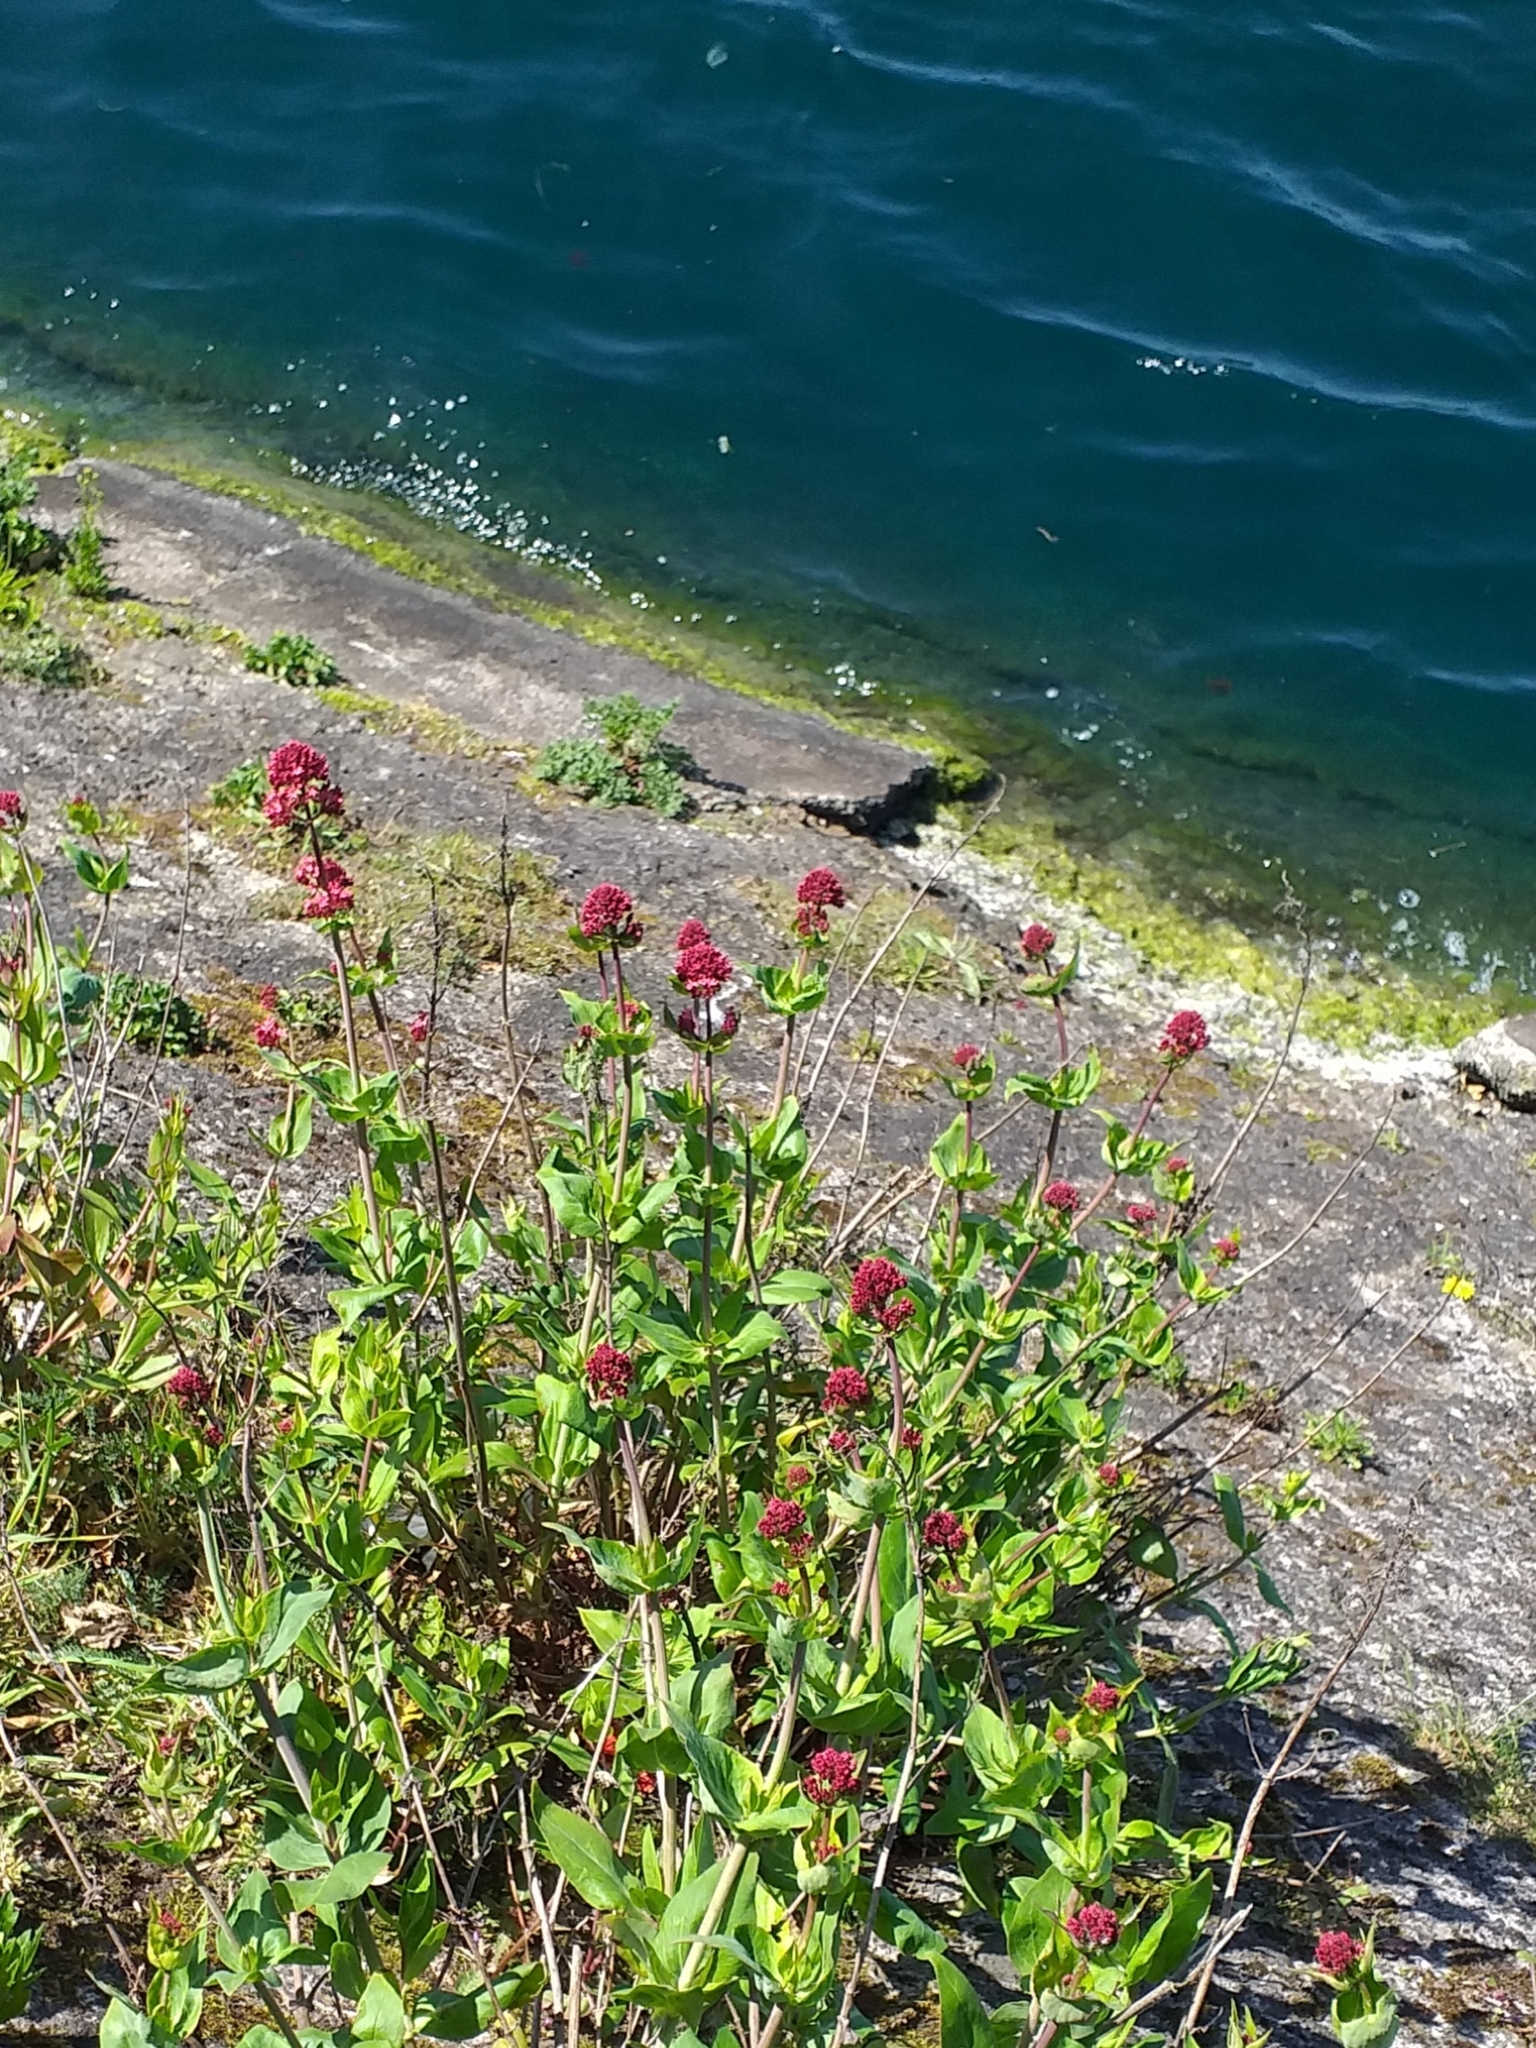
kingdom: Plantae
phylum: Tracheophyta
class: Magnoliopsida
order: Dipsacales
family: Caprifoliaceae
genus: Centranthus
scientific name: Centranthus ruber
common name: Red valerian
